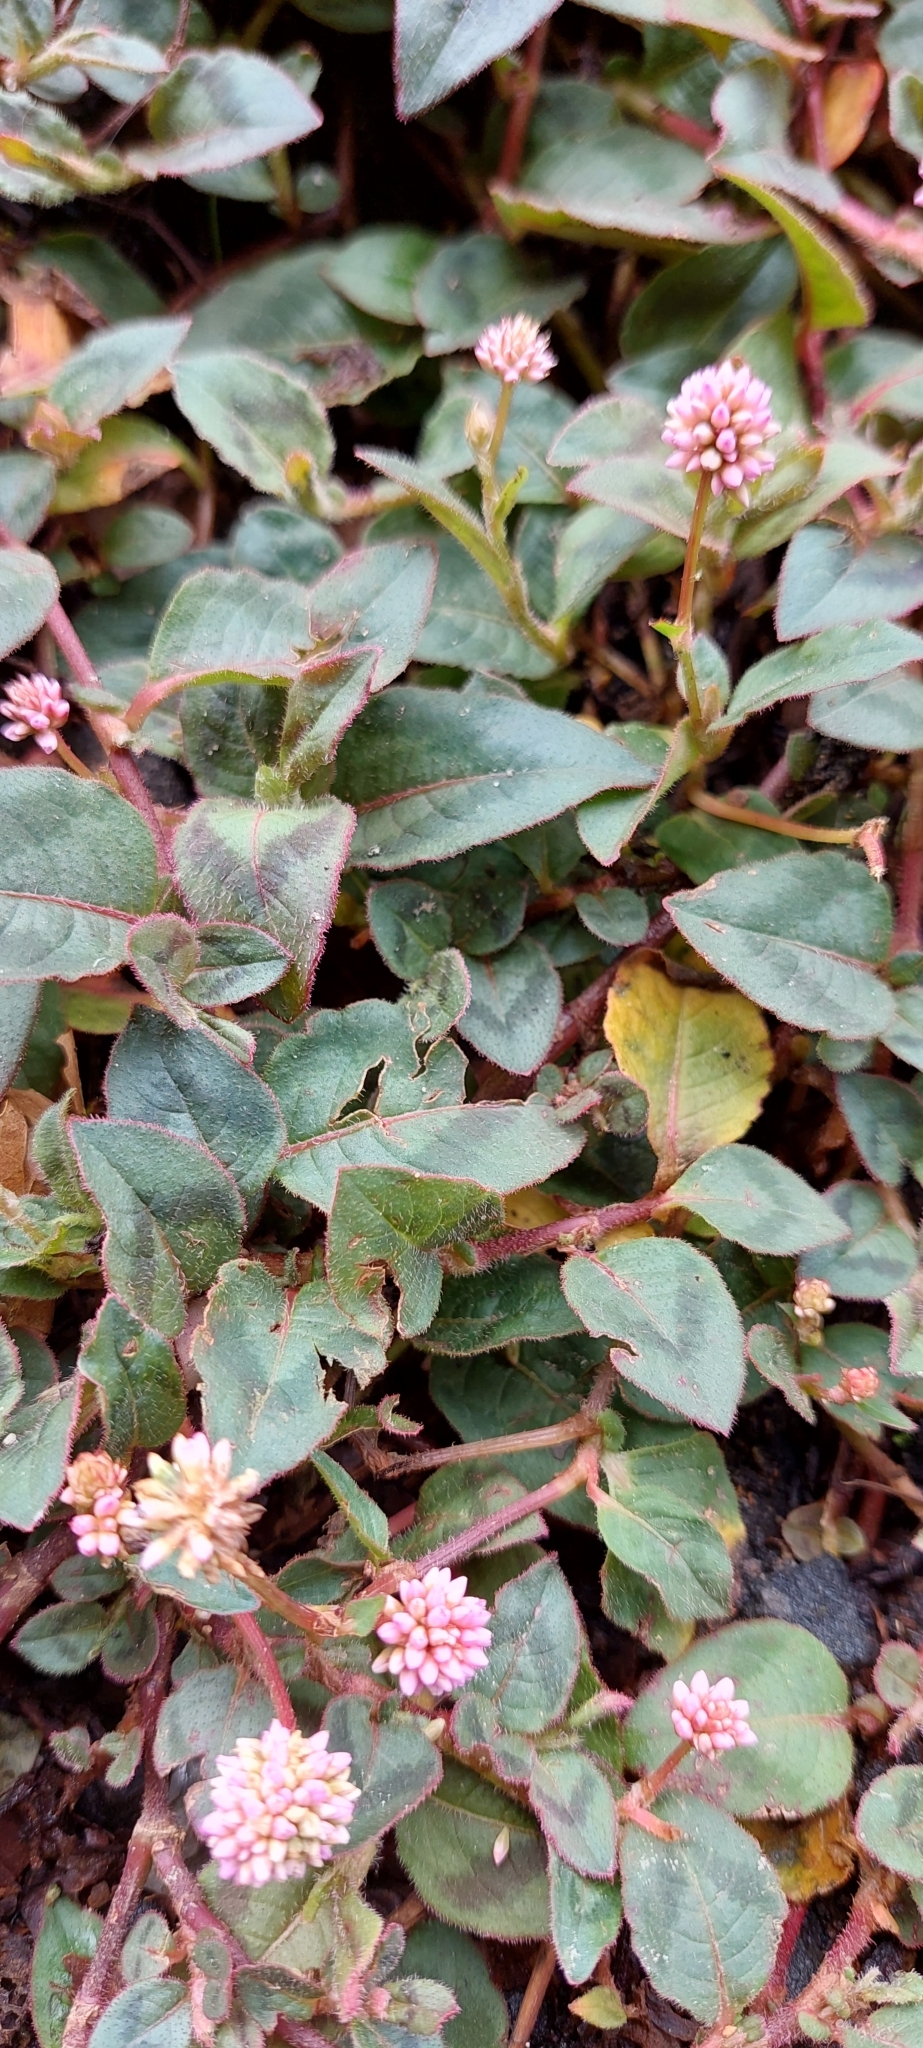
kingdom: Plantae
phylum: Tracheophyta
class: Magnoliopsida
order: Caryophyllales
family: Polygonaceae
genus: Persicaria
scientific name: Persicaria capitata
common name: Pinkhead smartweed
